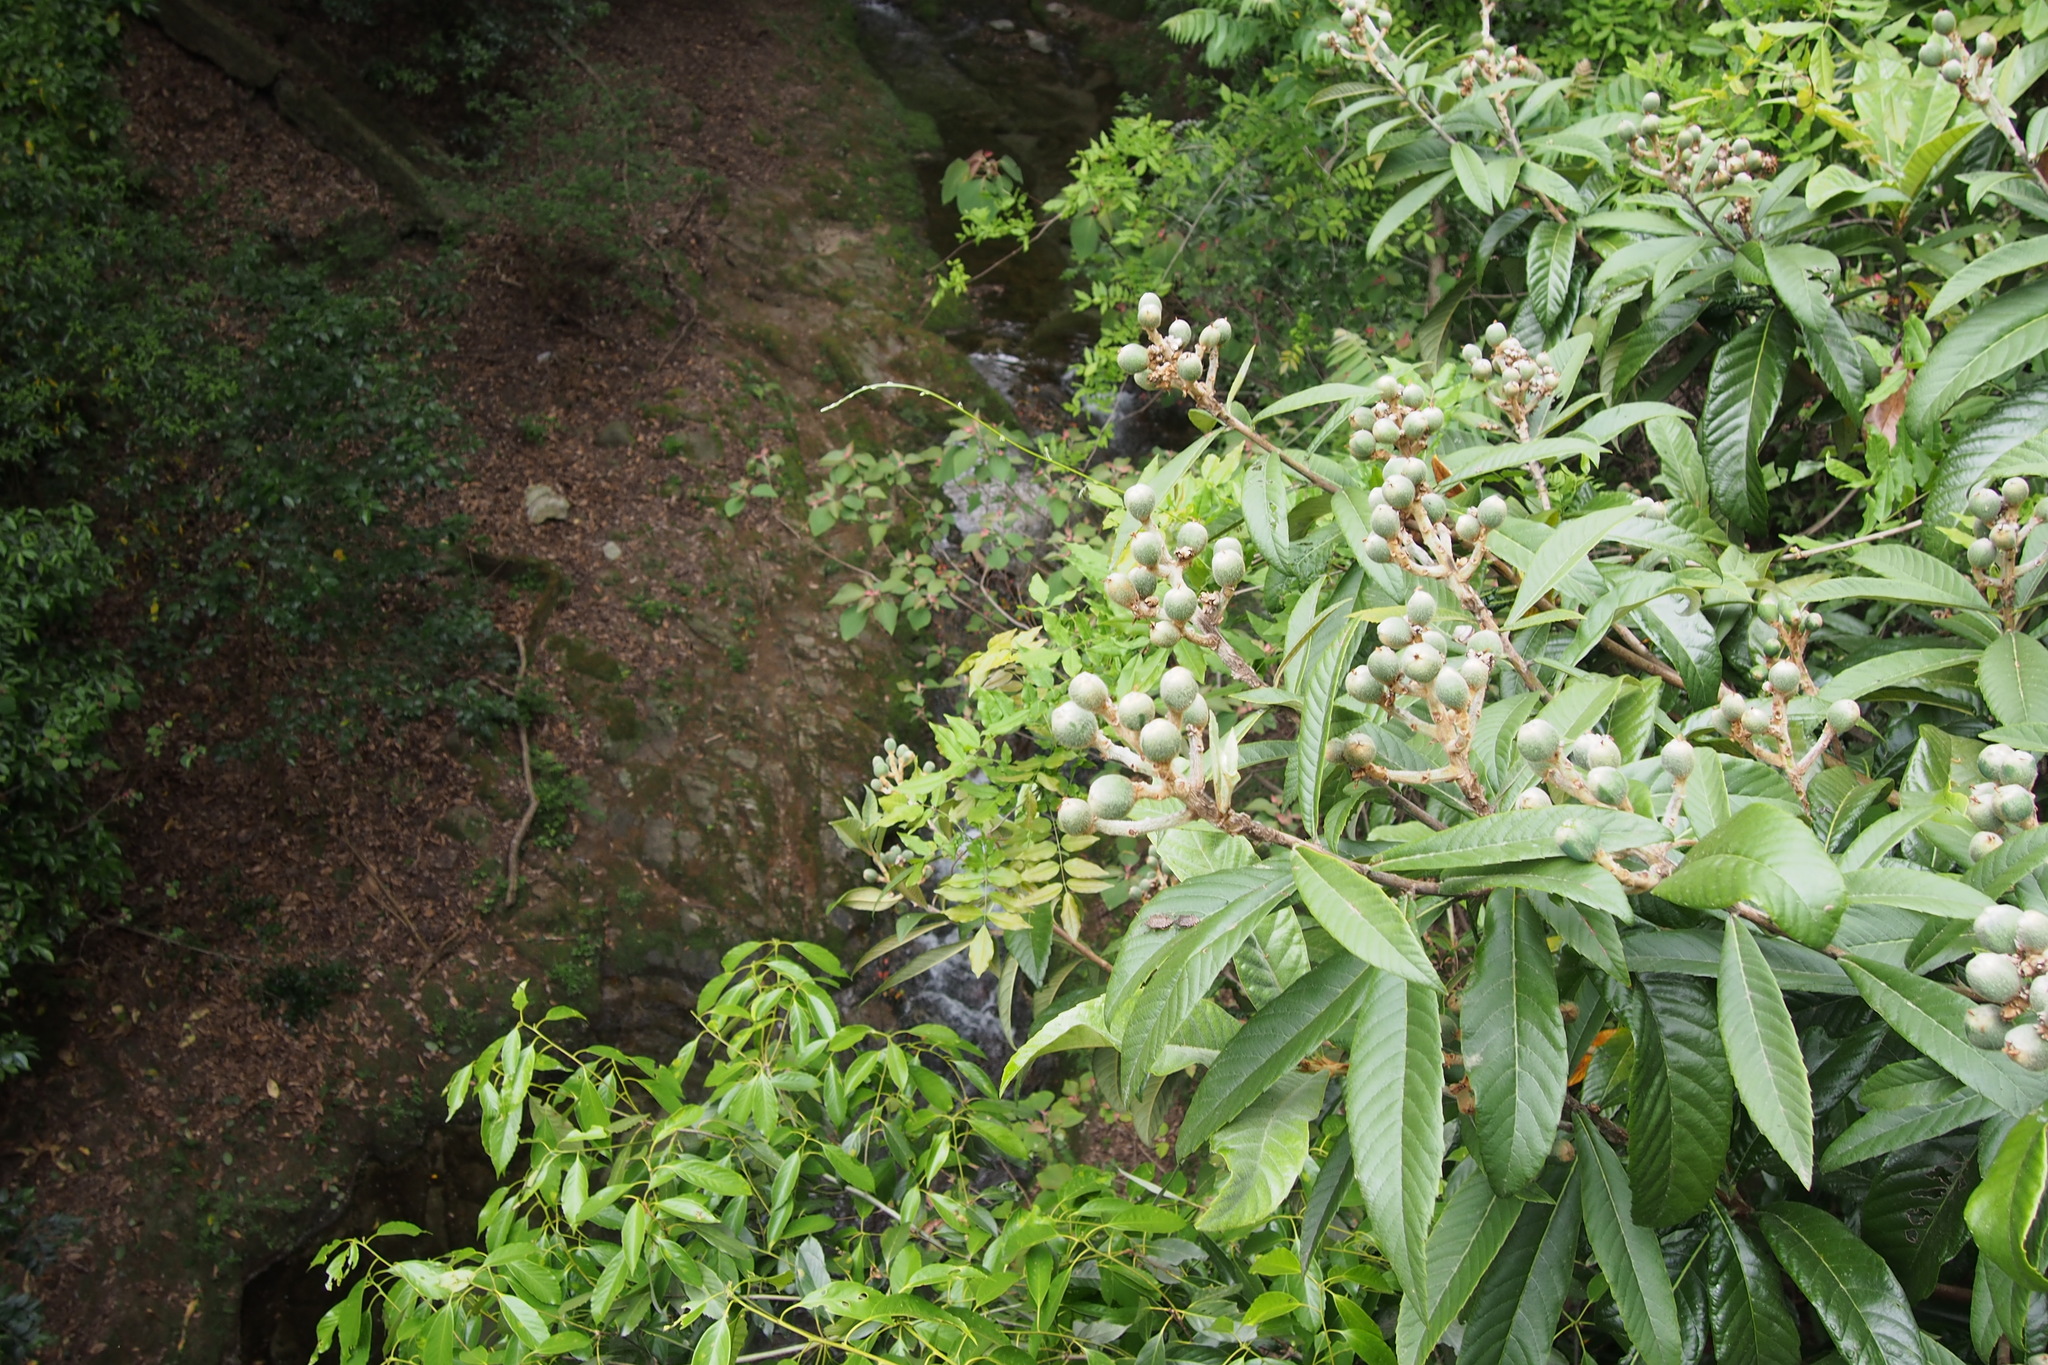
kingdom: Plantae
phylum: Tracheophyta
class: Magnoliopsida
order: Rosales
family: Rosaceae
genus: Rhaphiolepis
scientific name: Rhaphiolepis bibas
